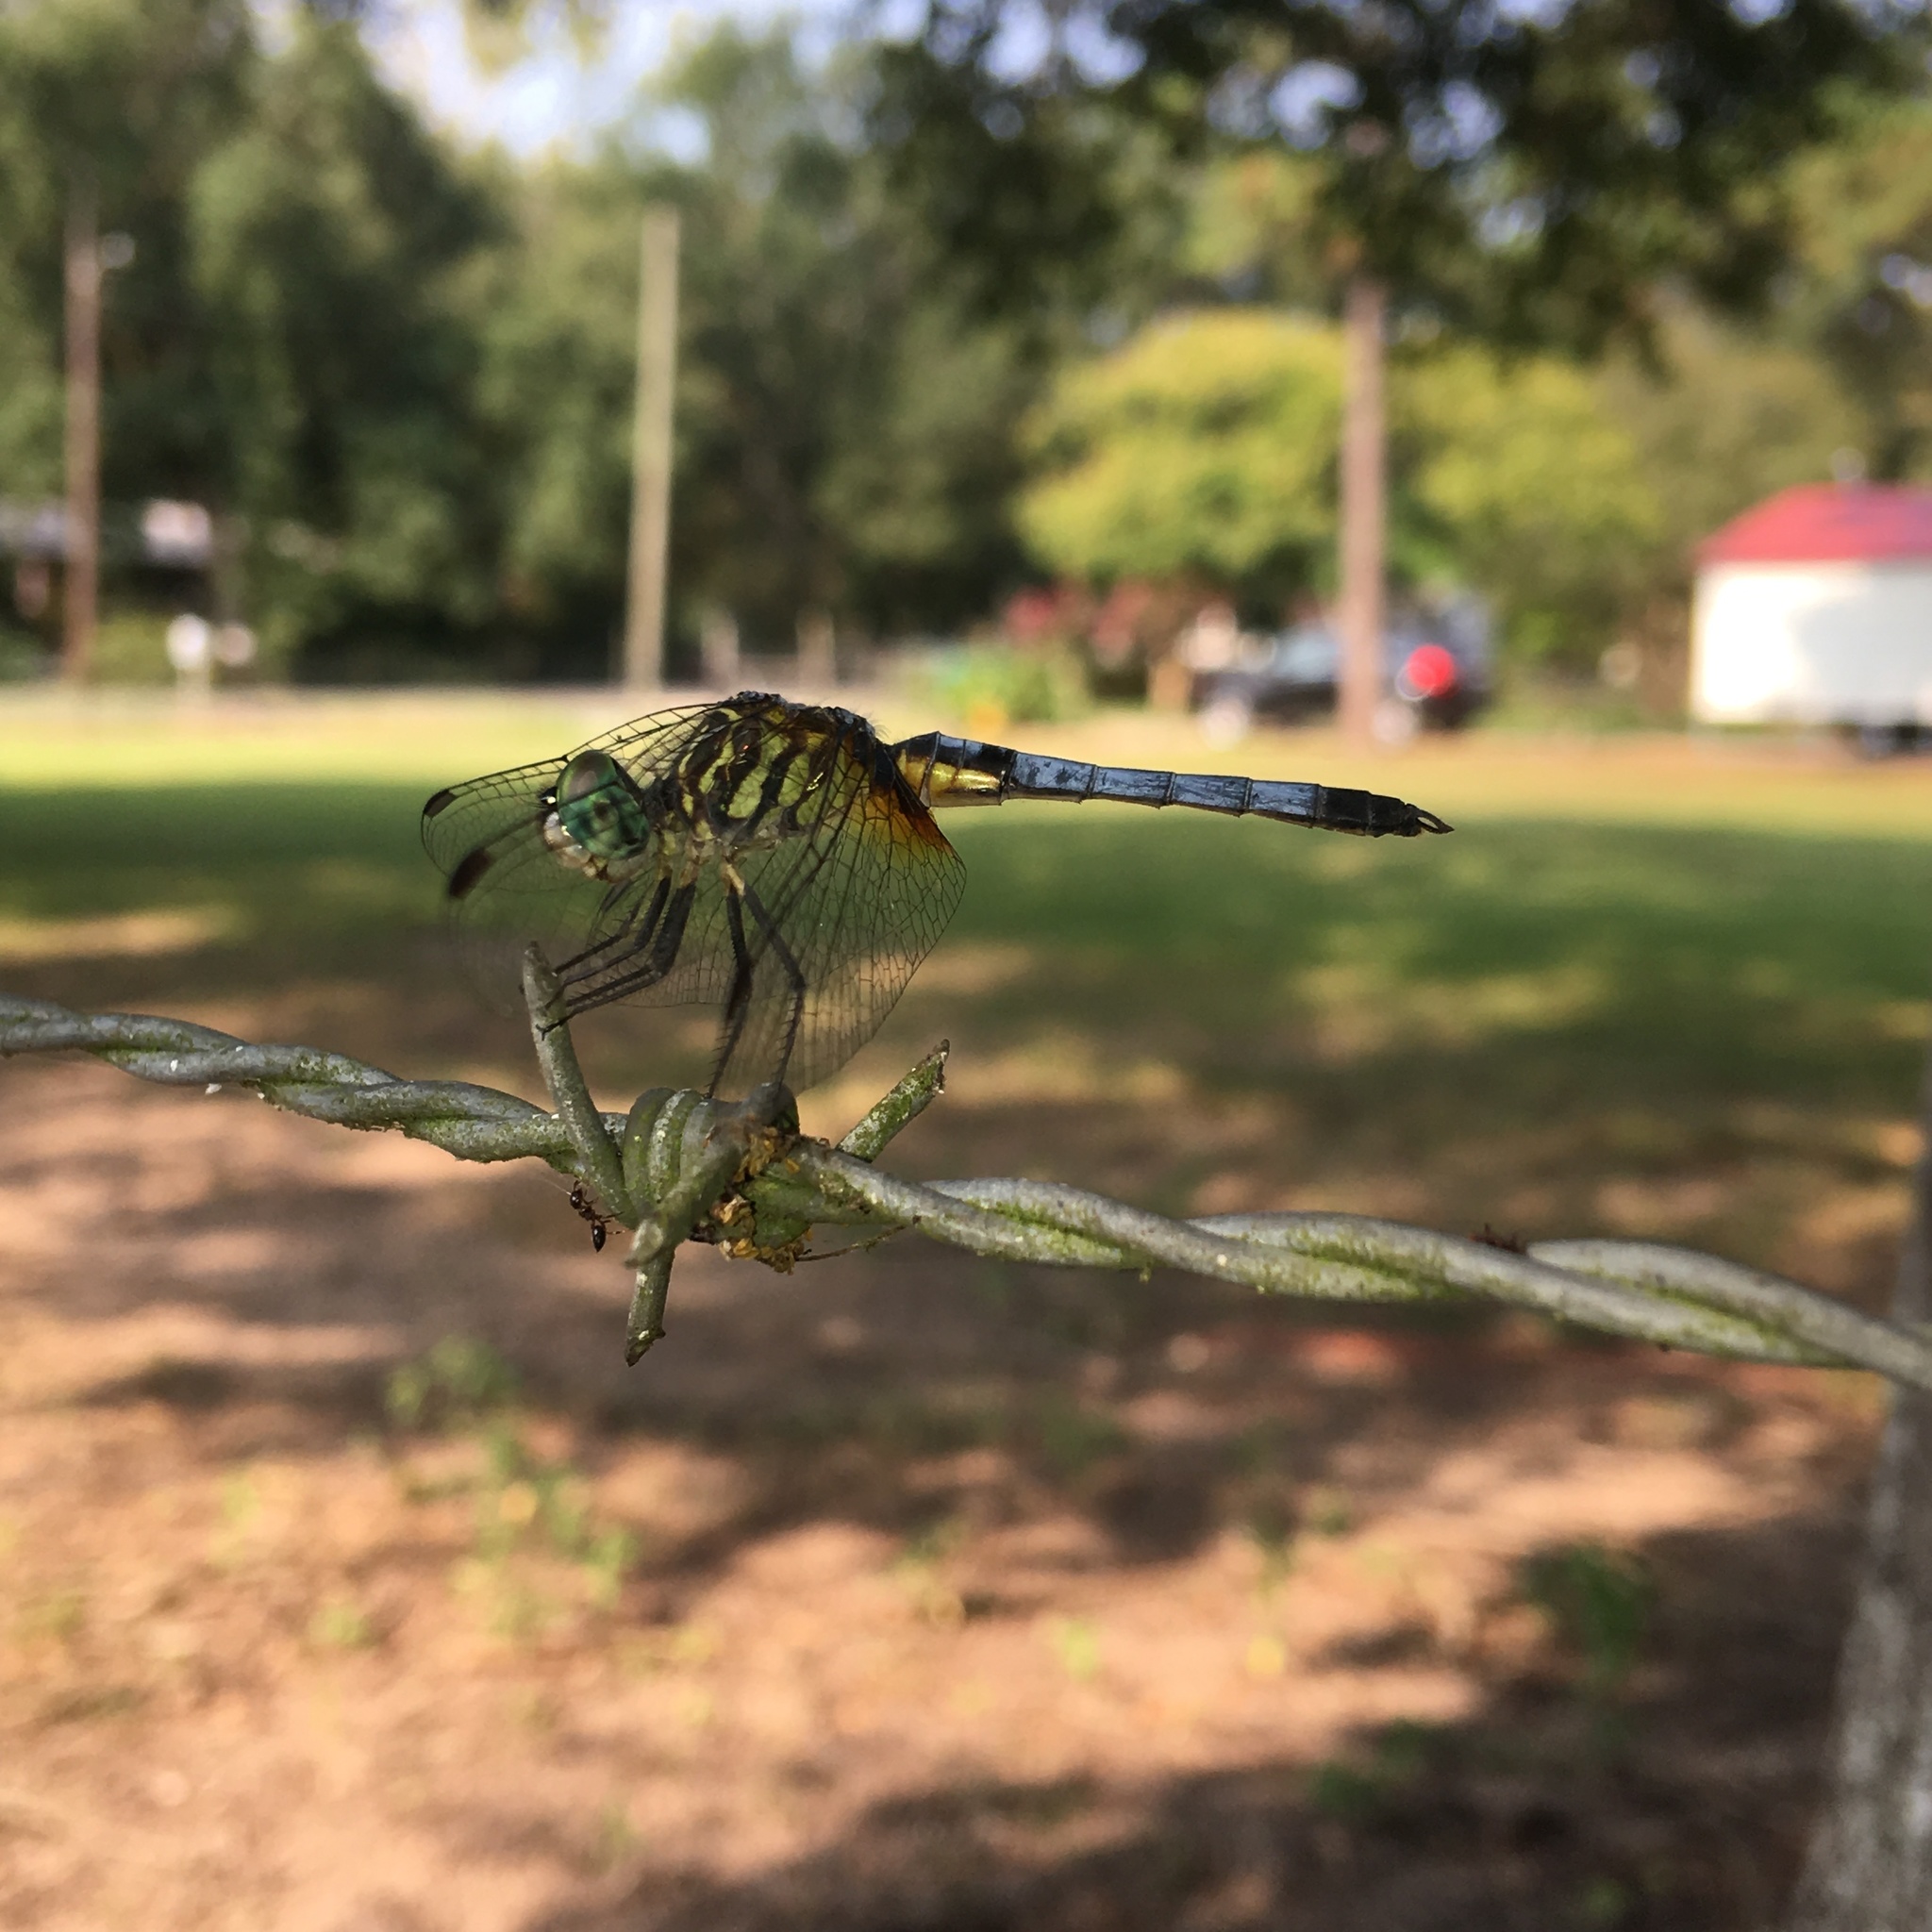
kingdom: Animalia
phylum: Arthropoda
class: Insecta
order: Odonata
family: Libellulidae
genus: Pachydiplax
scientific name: Pachydiplax longipennis
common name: Blue dasher
